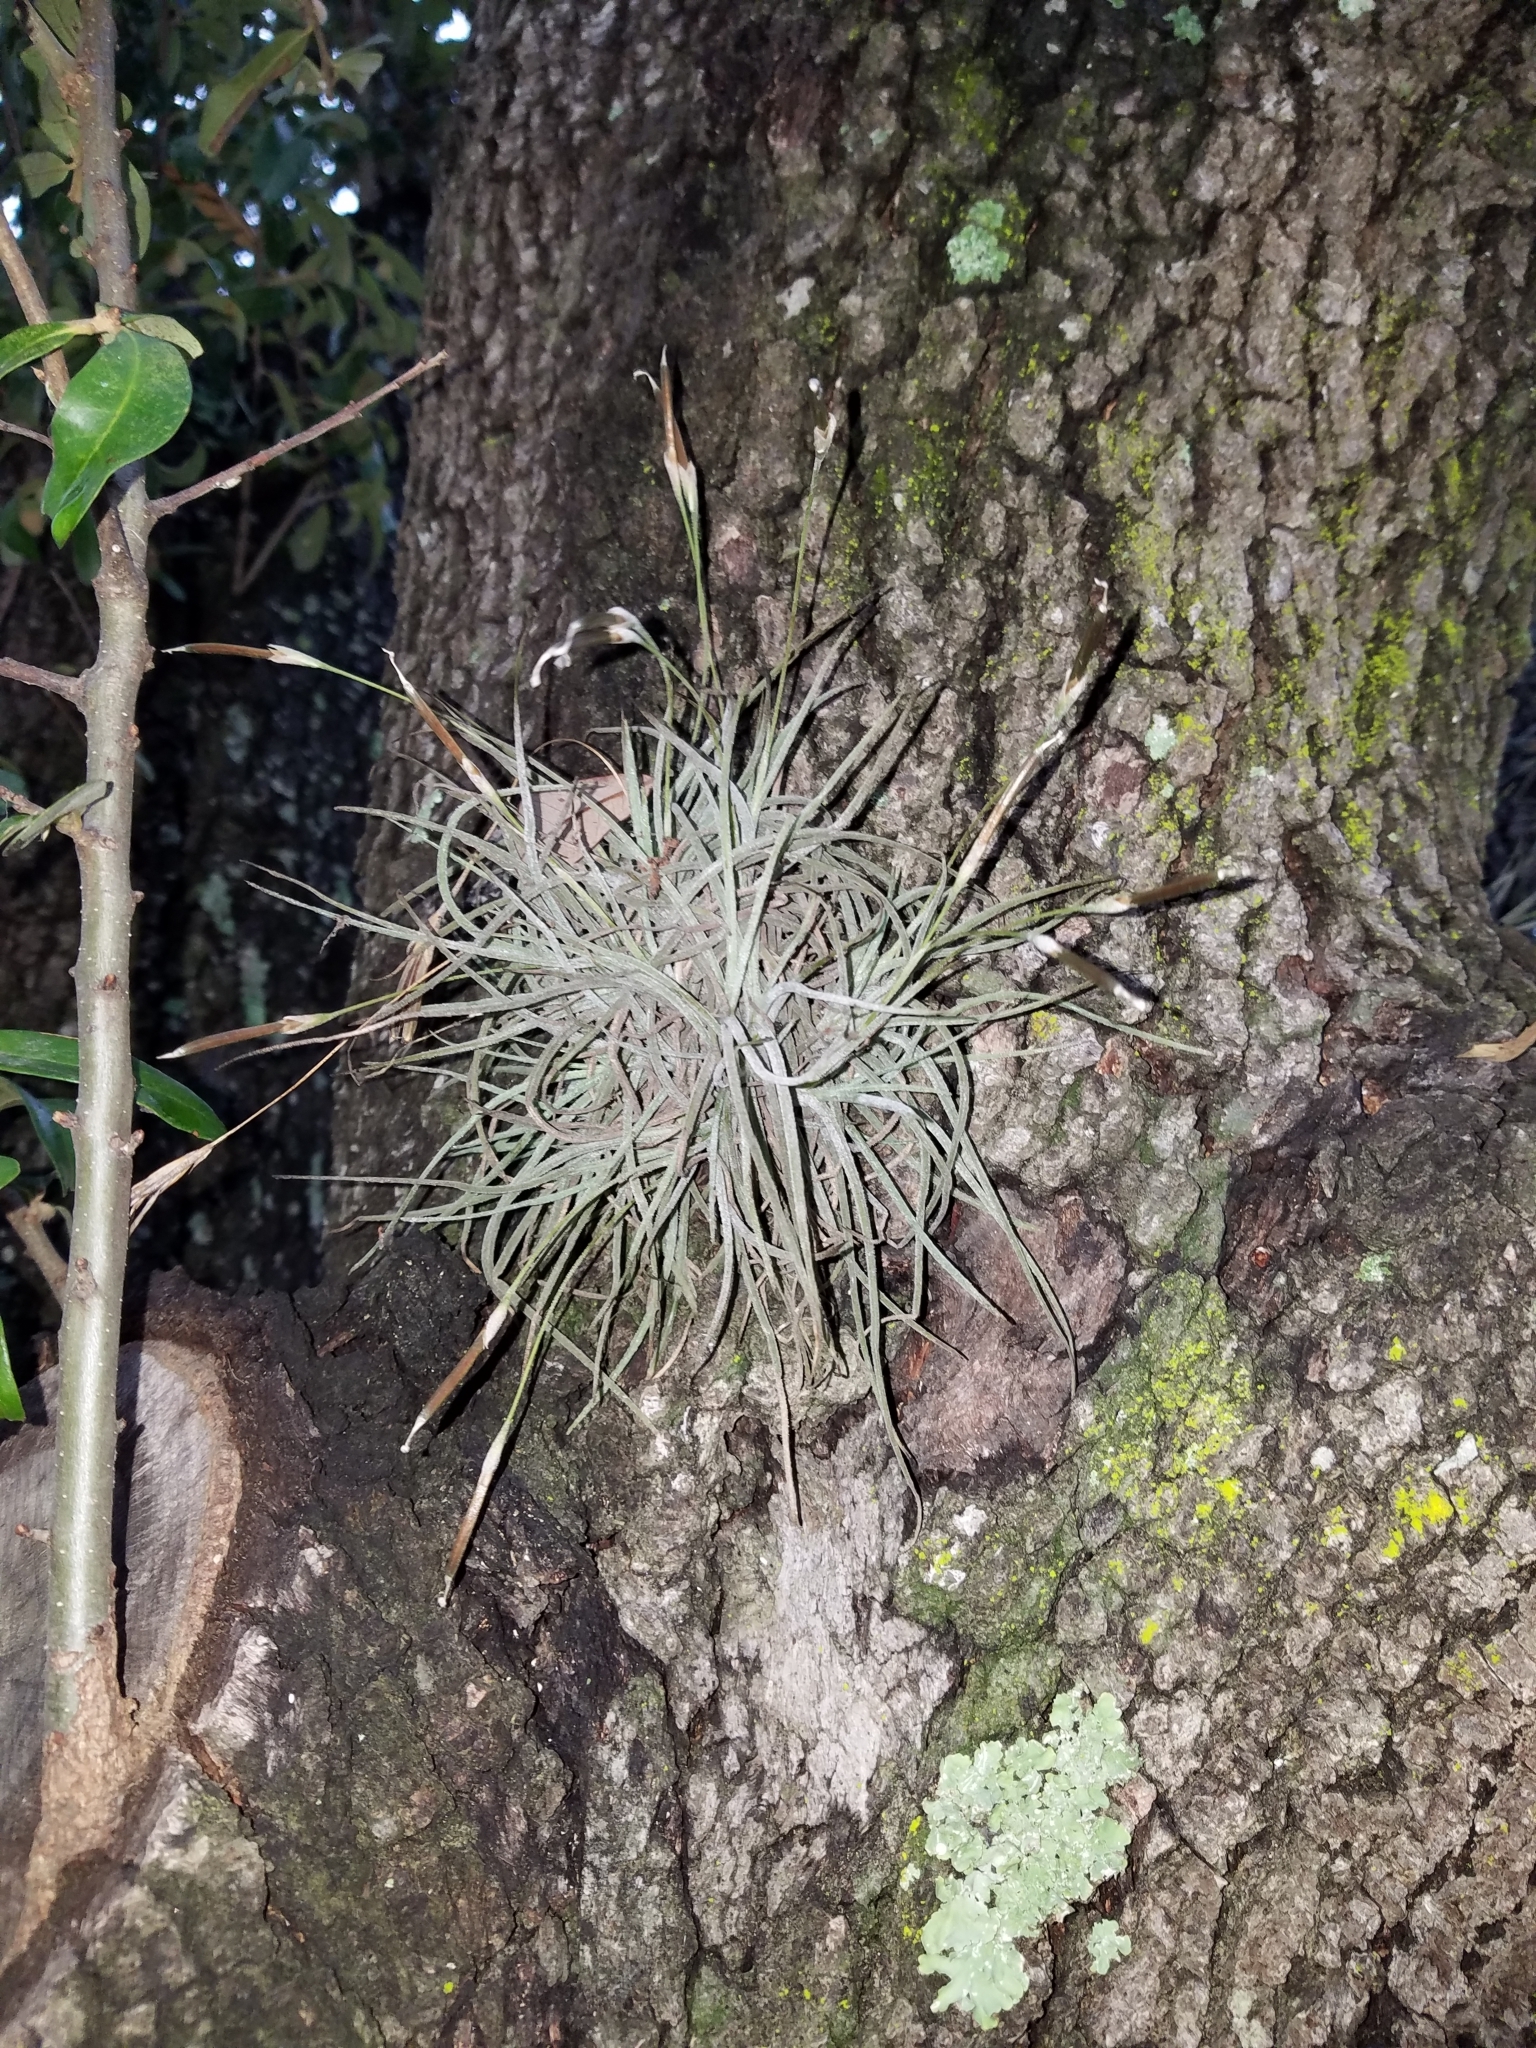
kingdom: Plantae
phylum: Tracheophyta
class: Liliopsida
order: Poales
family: Bromeliaceae
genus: Tillandsia
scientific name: Tillandsia recurvata
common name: Small ballmoss
